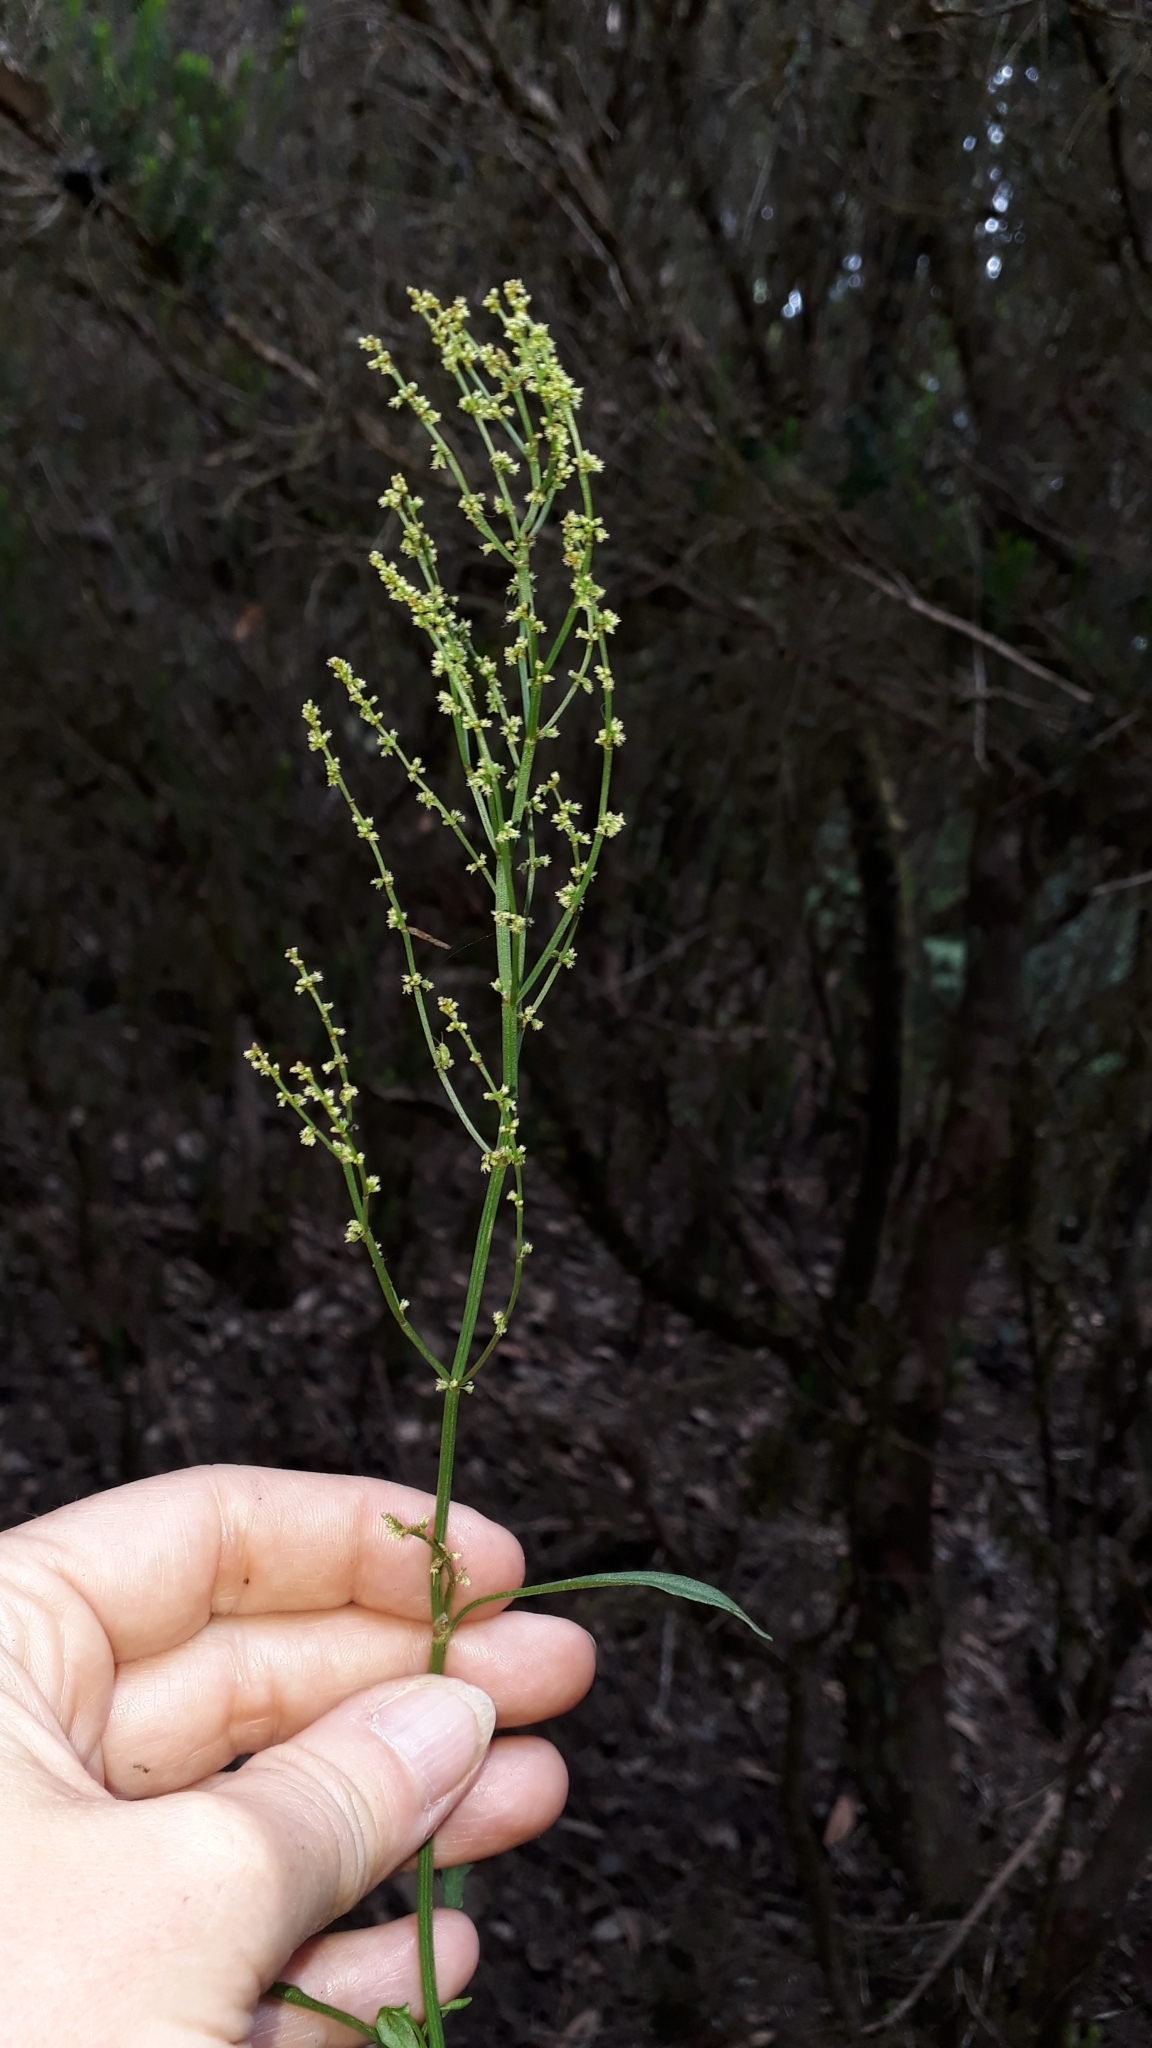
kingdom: Plantae
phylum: Tracheophyta
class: Magnoliopsida
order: Caryophyllales
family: Polygonaceae
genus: Rumex
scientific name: Rumex acetosella
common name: Common sheep sorrel
